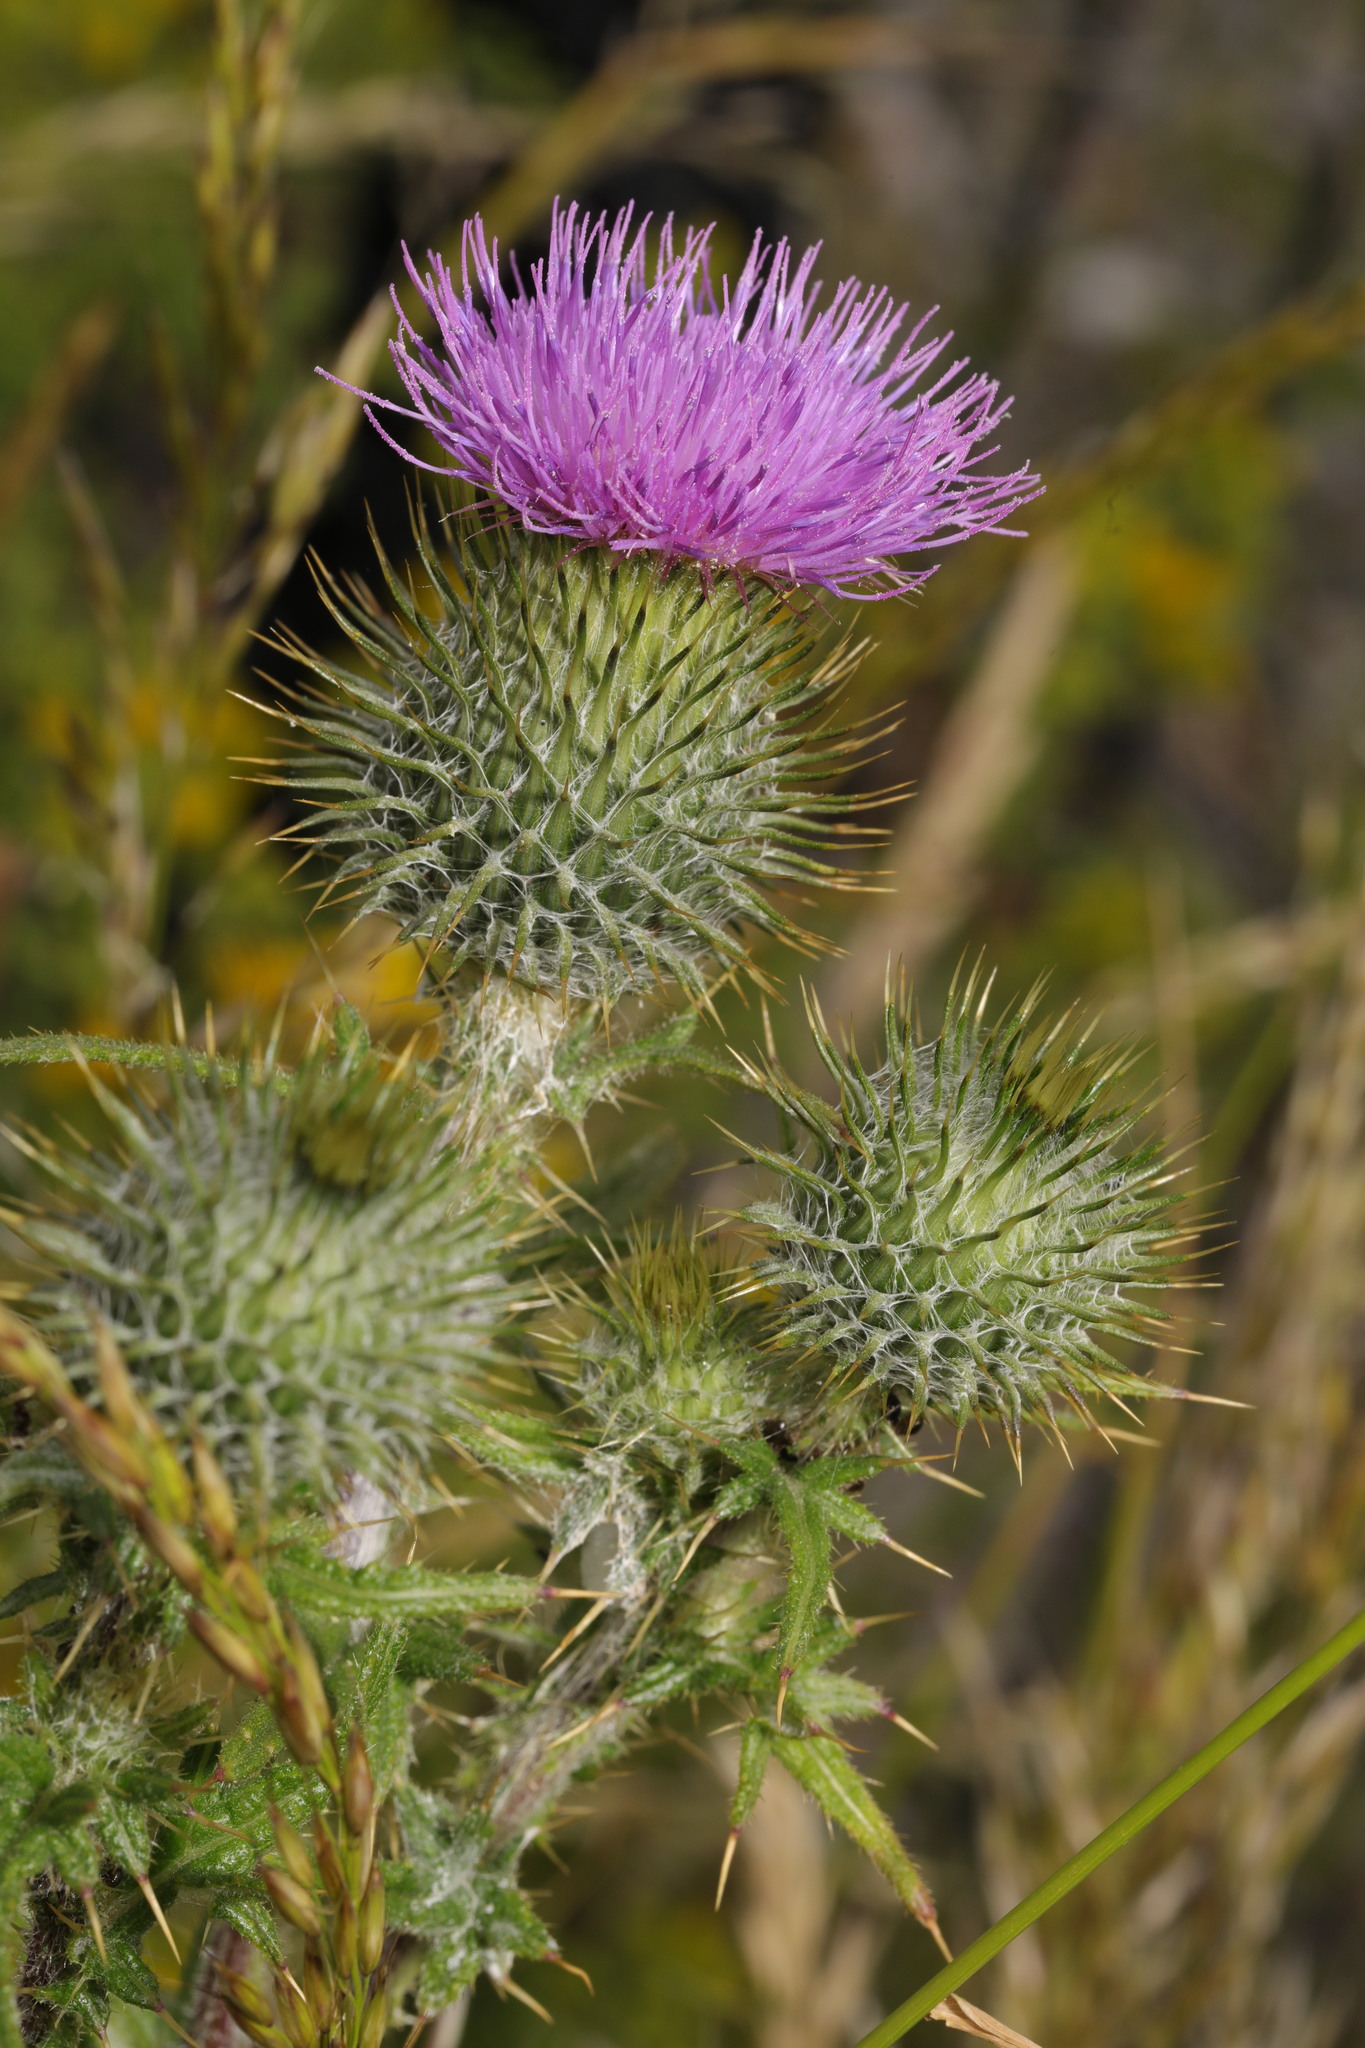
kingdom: Plantae
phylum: Tracheophyta
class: Magnoliopsida
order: Asterales
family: Asteraceae
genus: Cirsium
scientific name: Cirsium vulgare
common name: Bull thistle
